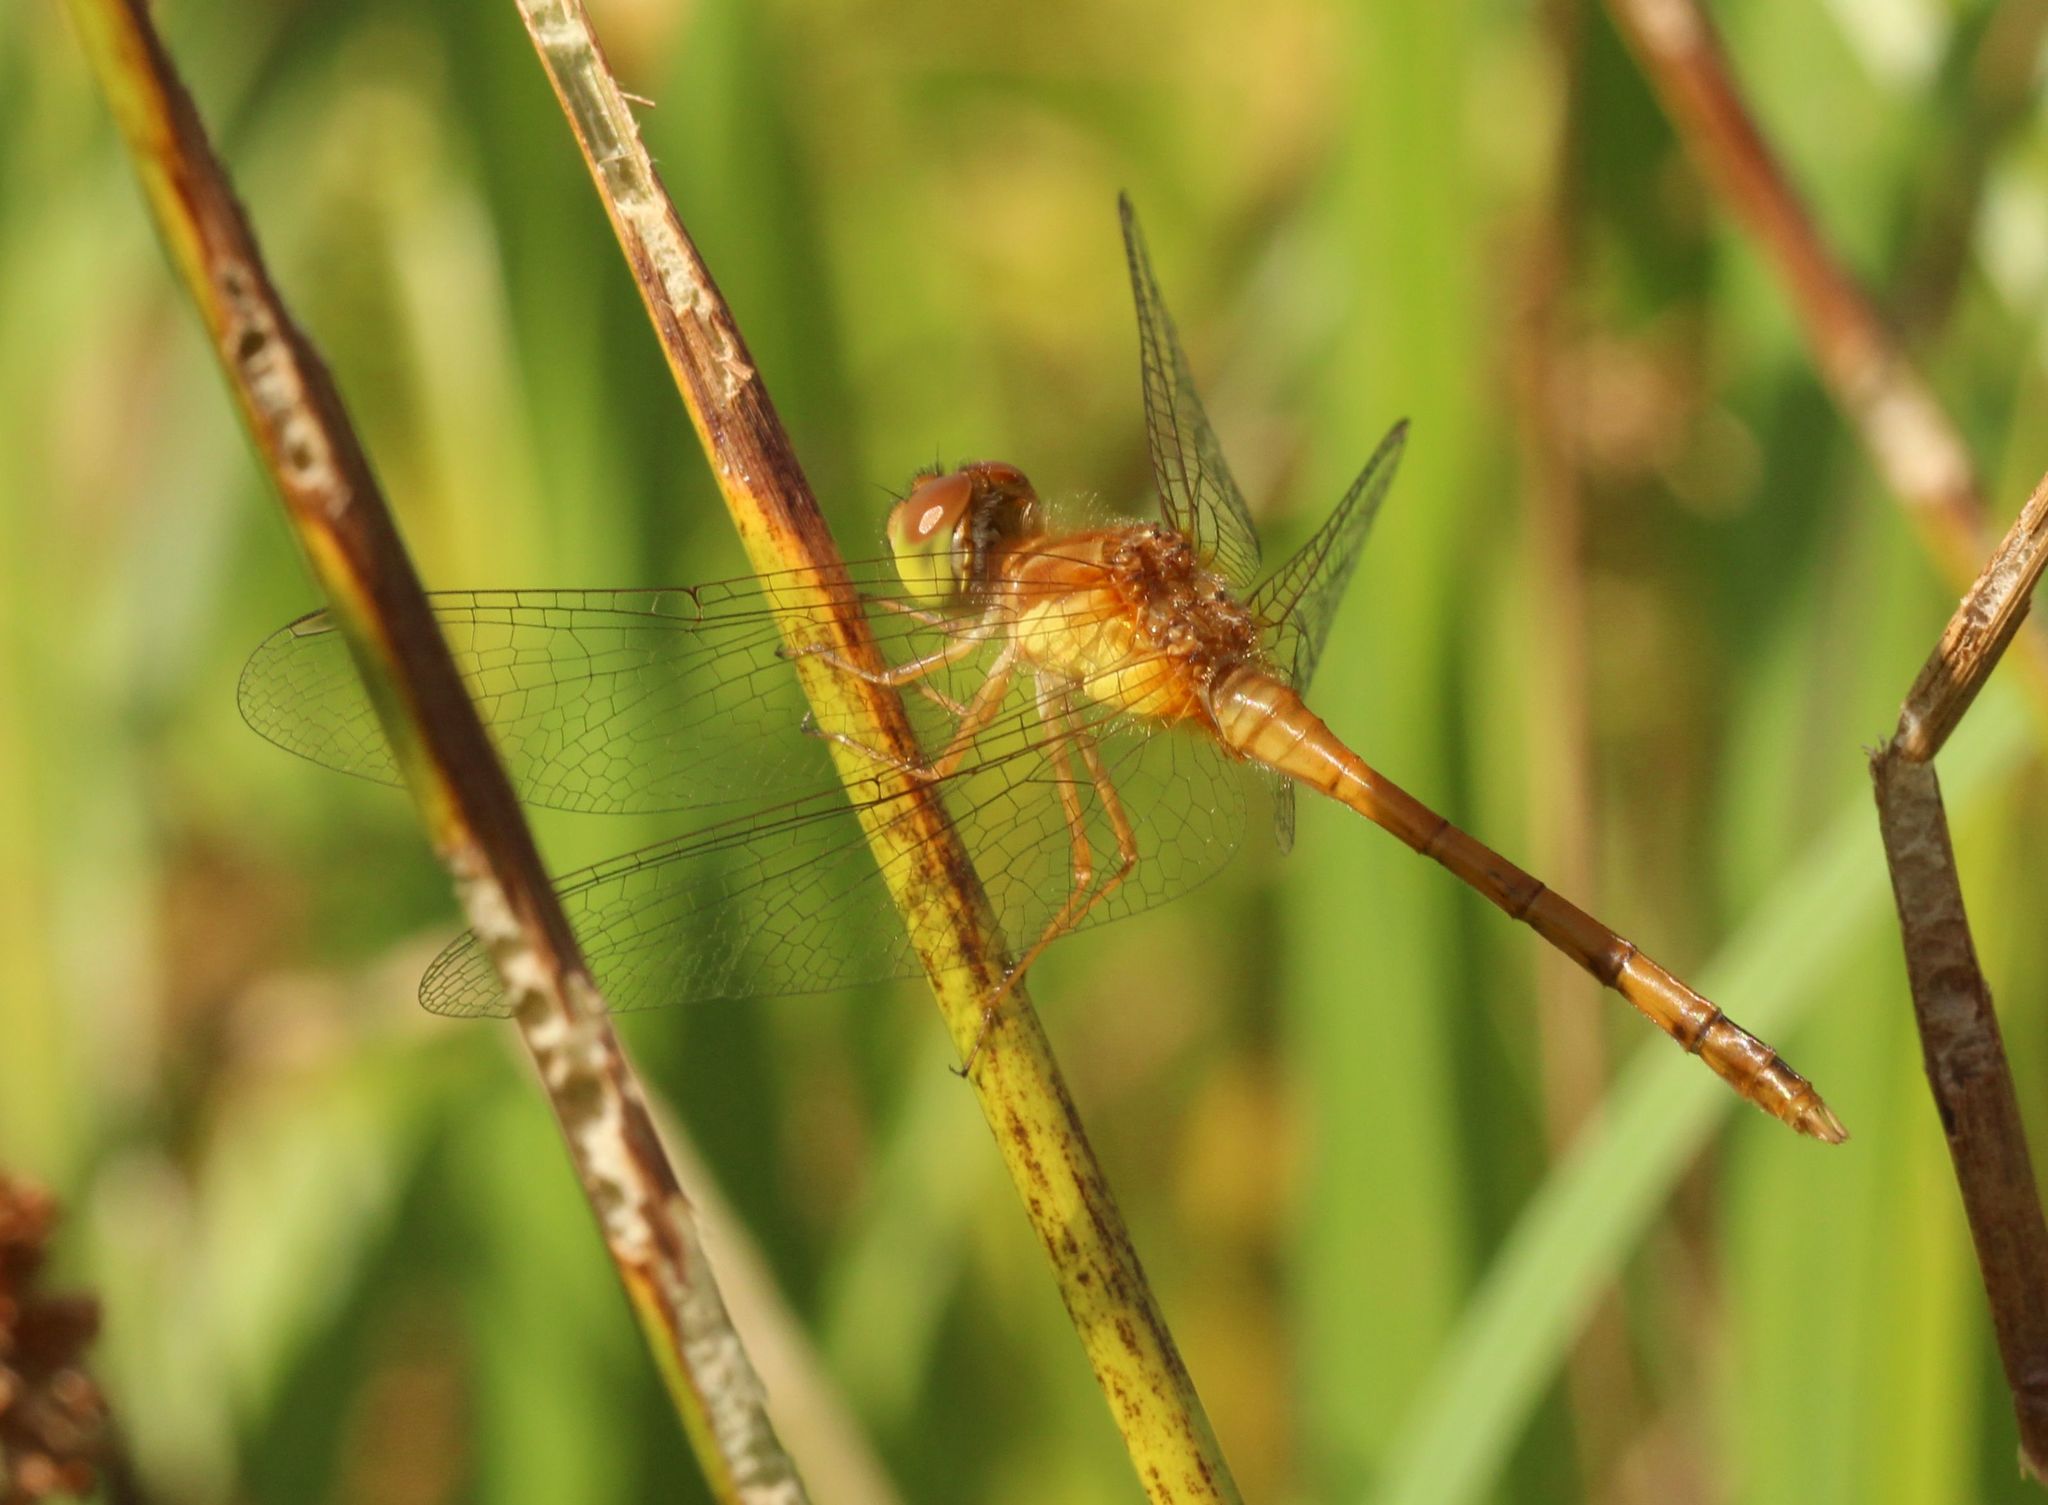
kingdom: Animalia
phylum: Arthropoda
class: Insecta
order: Odonata
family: Libellulidae
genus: Sympetrum
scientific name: Sympetrum vicinum
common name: Autumn meadowhawk
